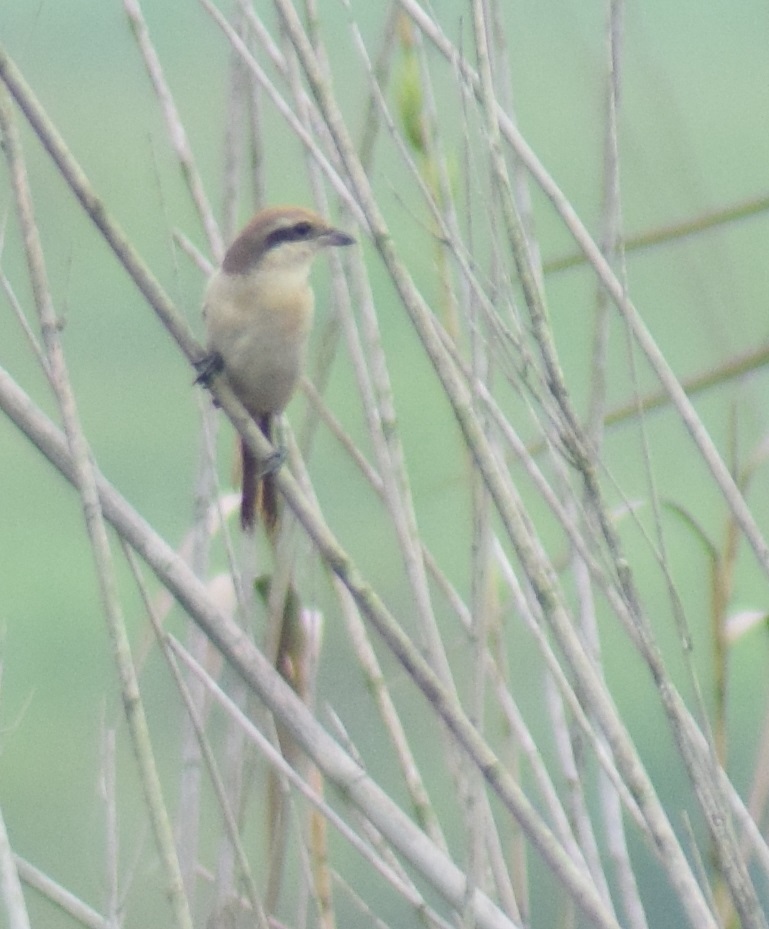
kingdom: Animalia
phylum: Chordata
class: Aves
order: Passeriformes
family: Laniidae
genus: Lanius
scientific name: Lanius cristatus
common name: Brown shrike
